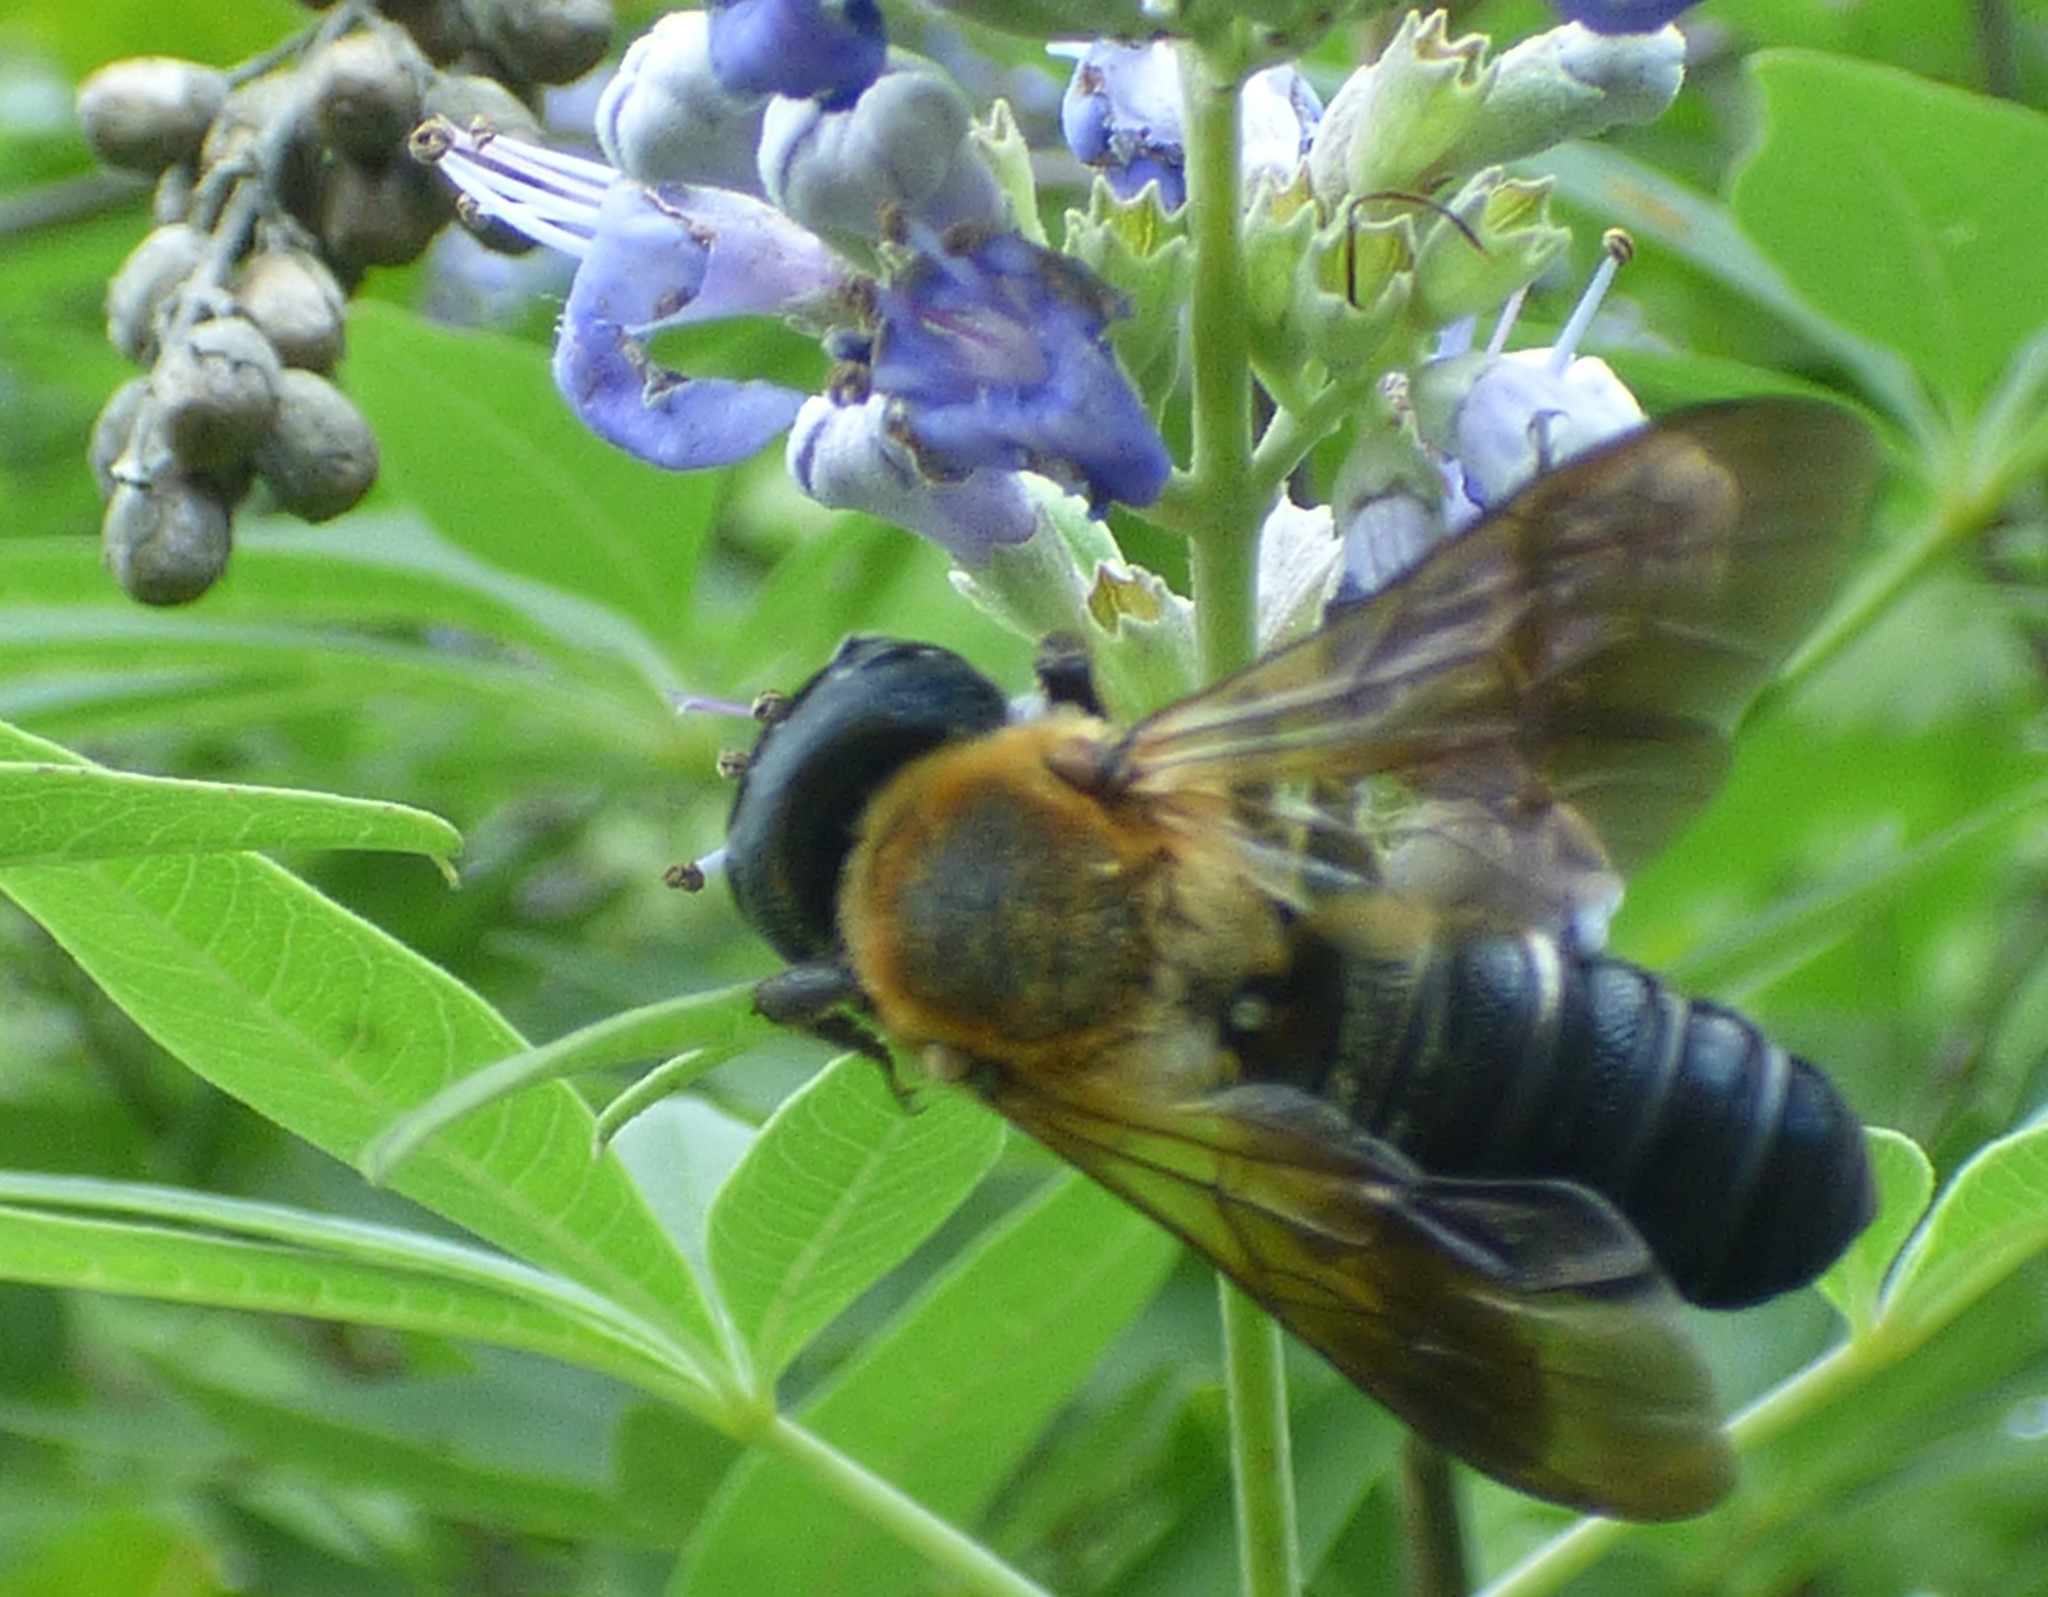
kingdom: Animalia
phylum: Arthropoda
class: Insecta
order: Hymenoptera
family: Megachilidae
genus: Megachile
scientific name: Megachile sculpturalis
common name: Sculptured resin bee
